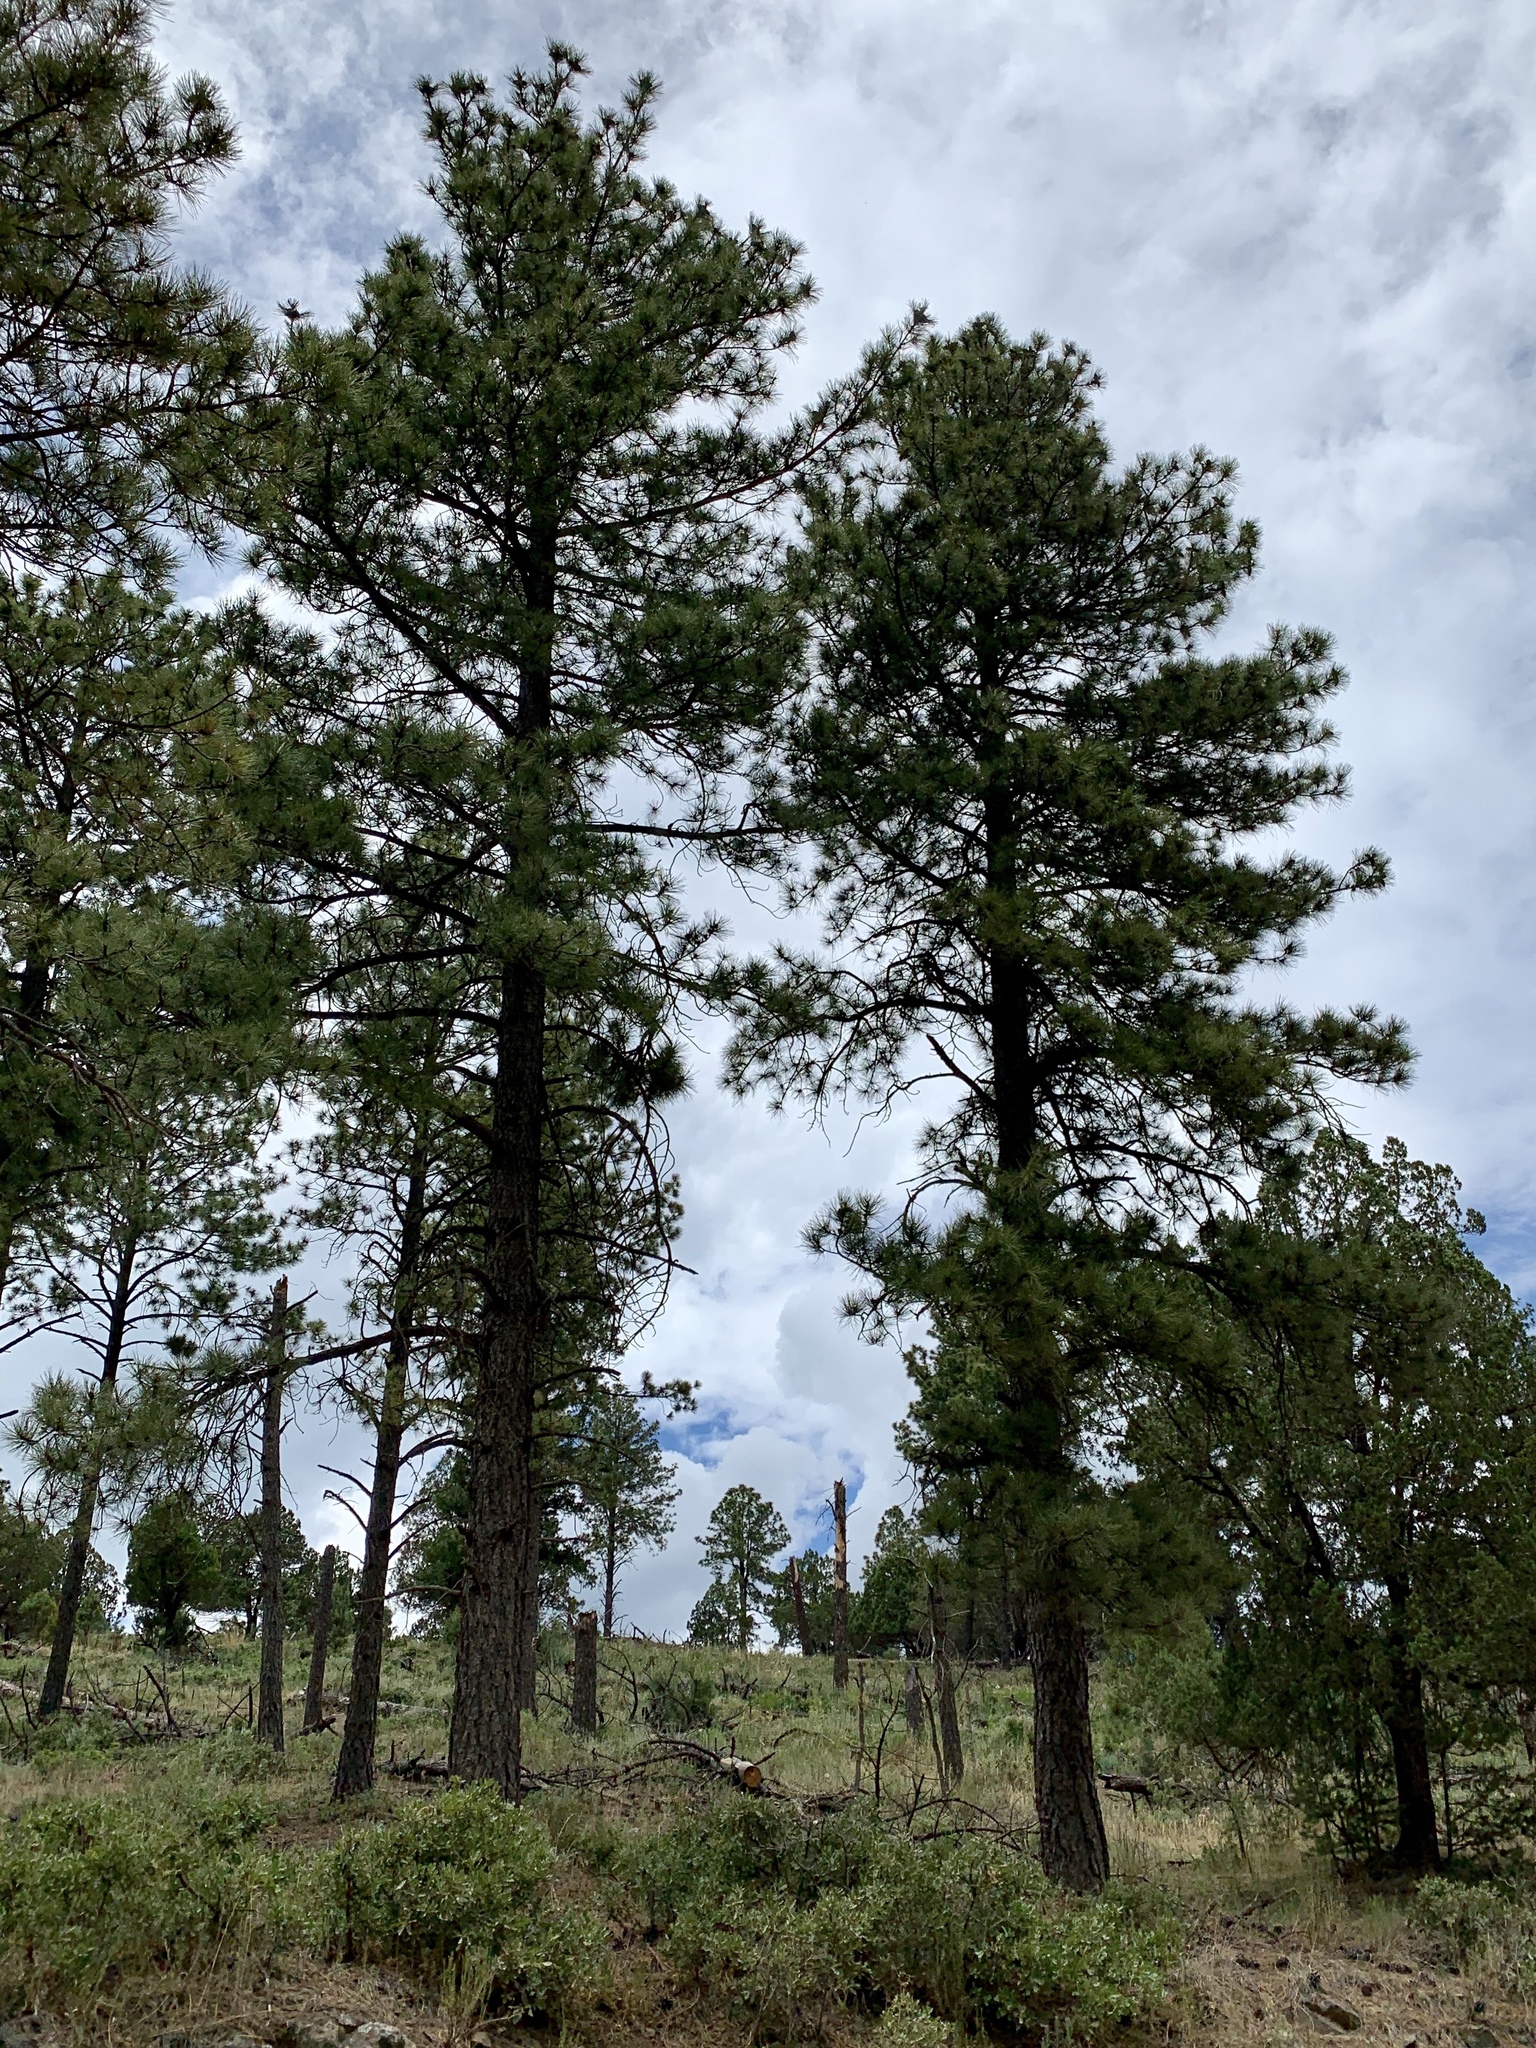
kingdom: Plantae
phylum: Tracheophyta
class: Pinopsida
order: Pinales
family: Pinaceae
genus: Pinus
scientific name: Pinus ponderosa
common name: Western yellow-pine
